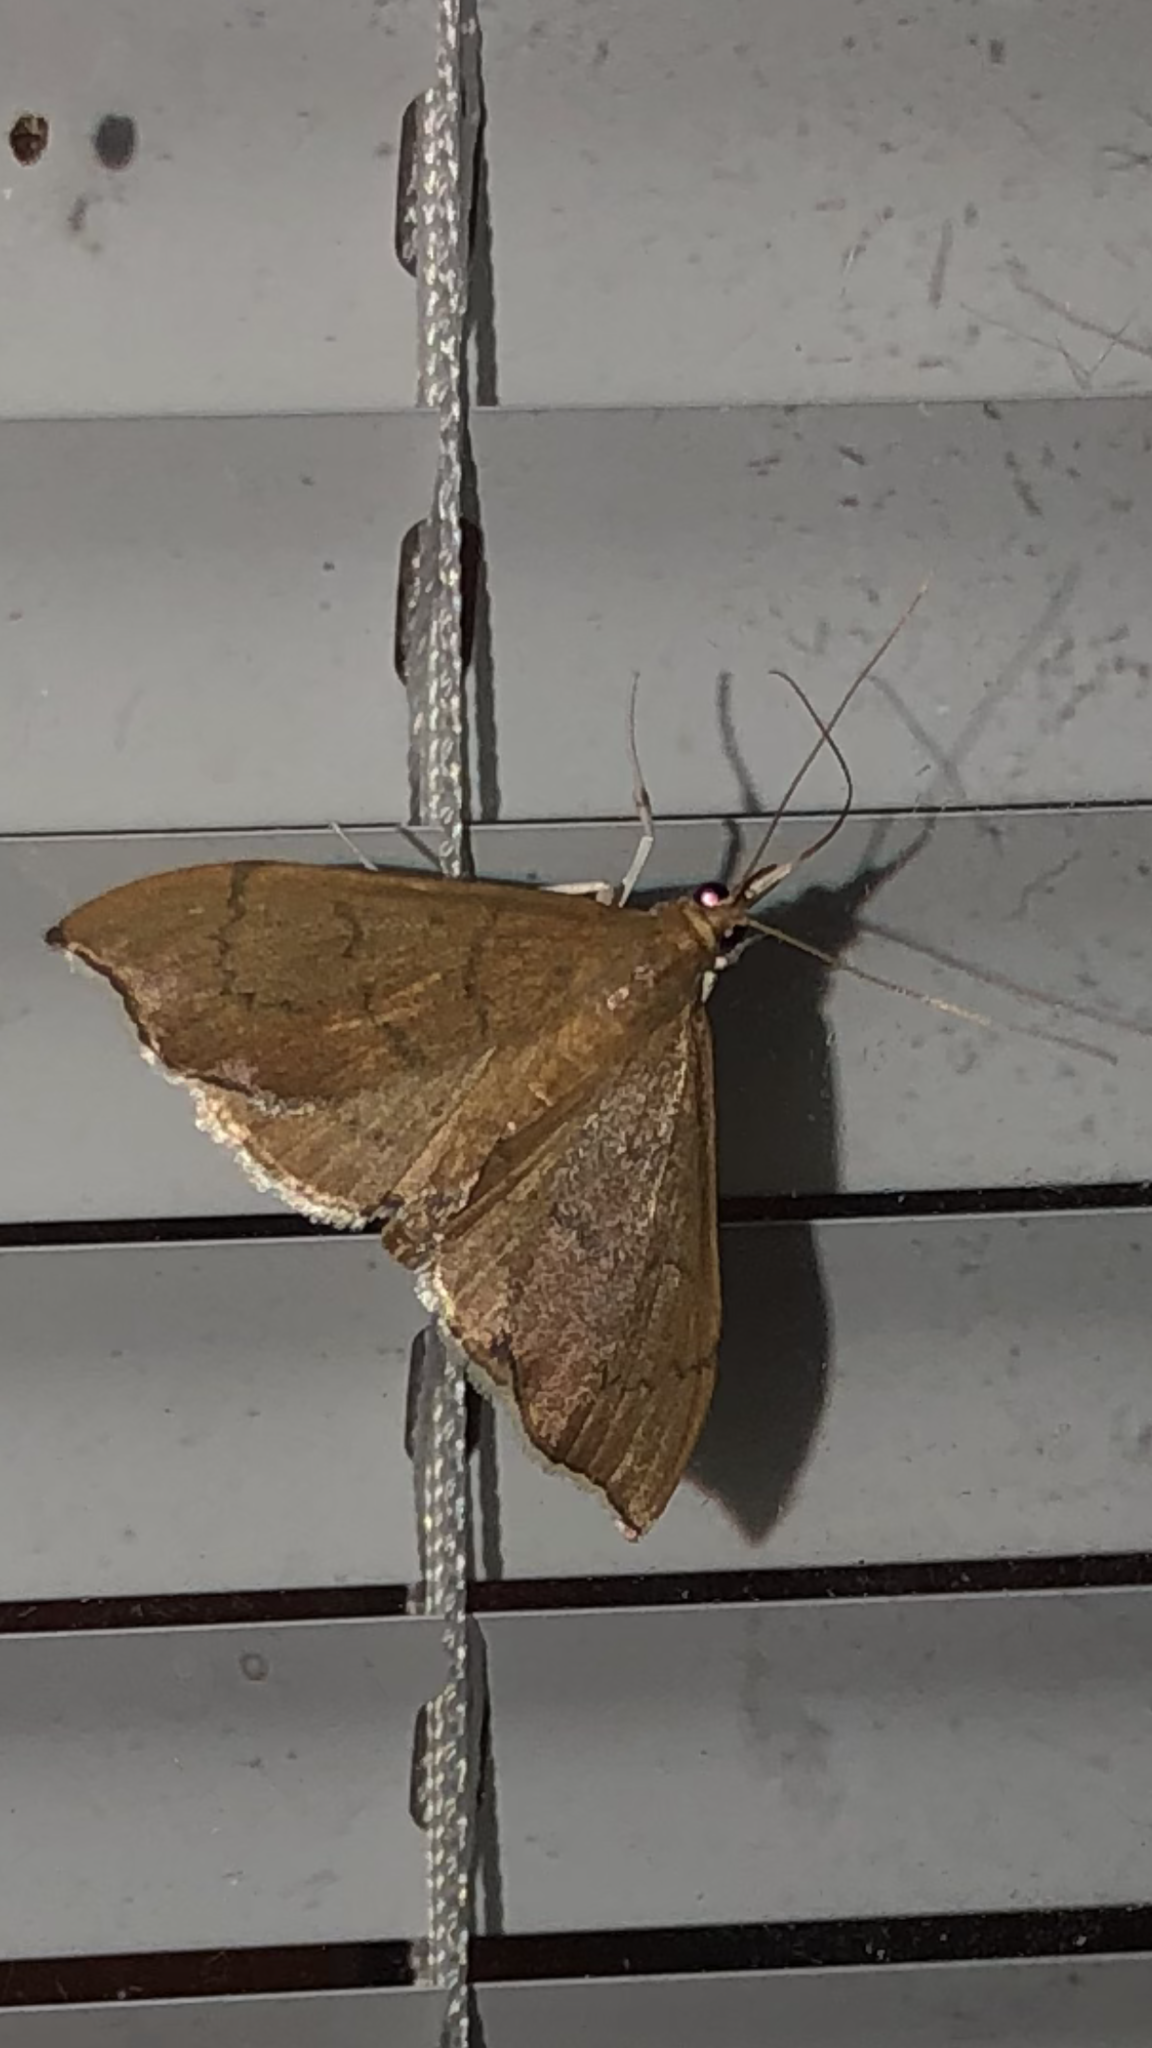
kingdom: Animalia
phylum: Arthropoda
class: Insecta
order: Lepidoptera
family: Crambidae
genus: Sericoplaga
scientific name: Sericoplaga externalis
